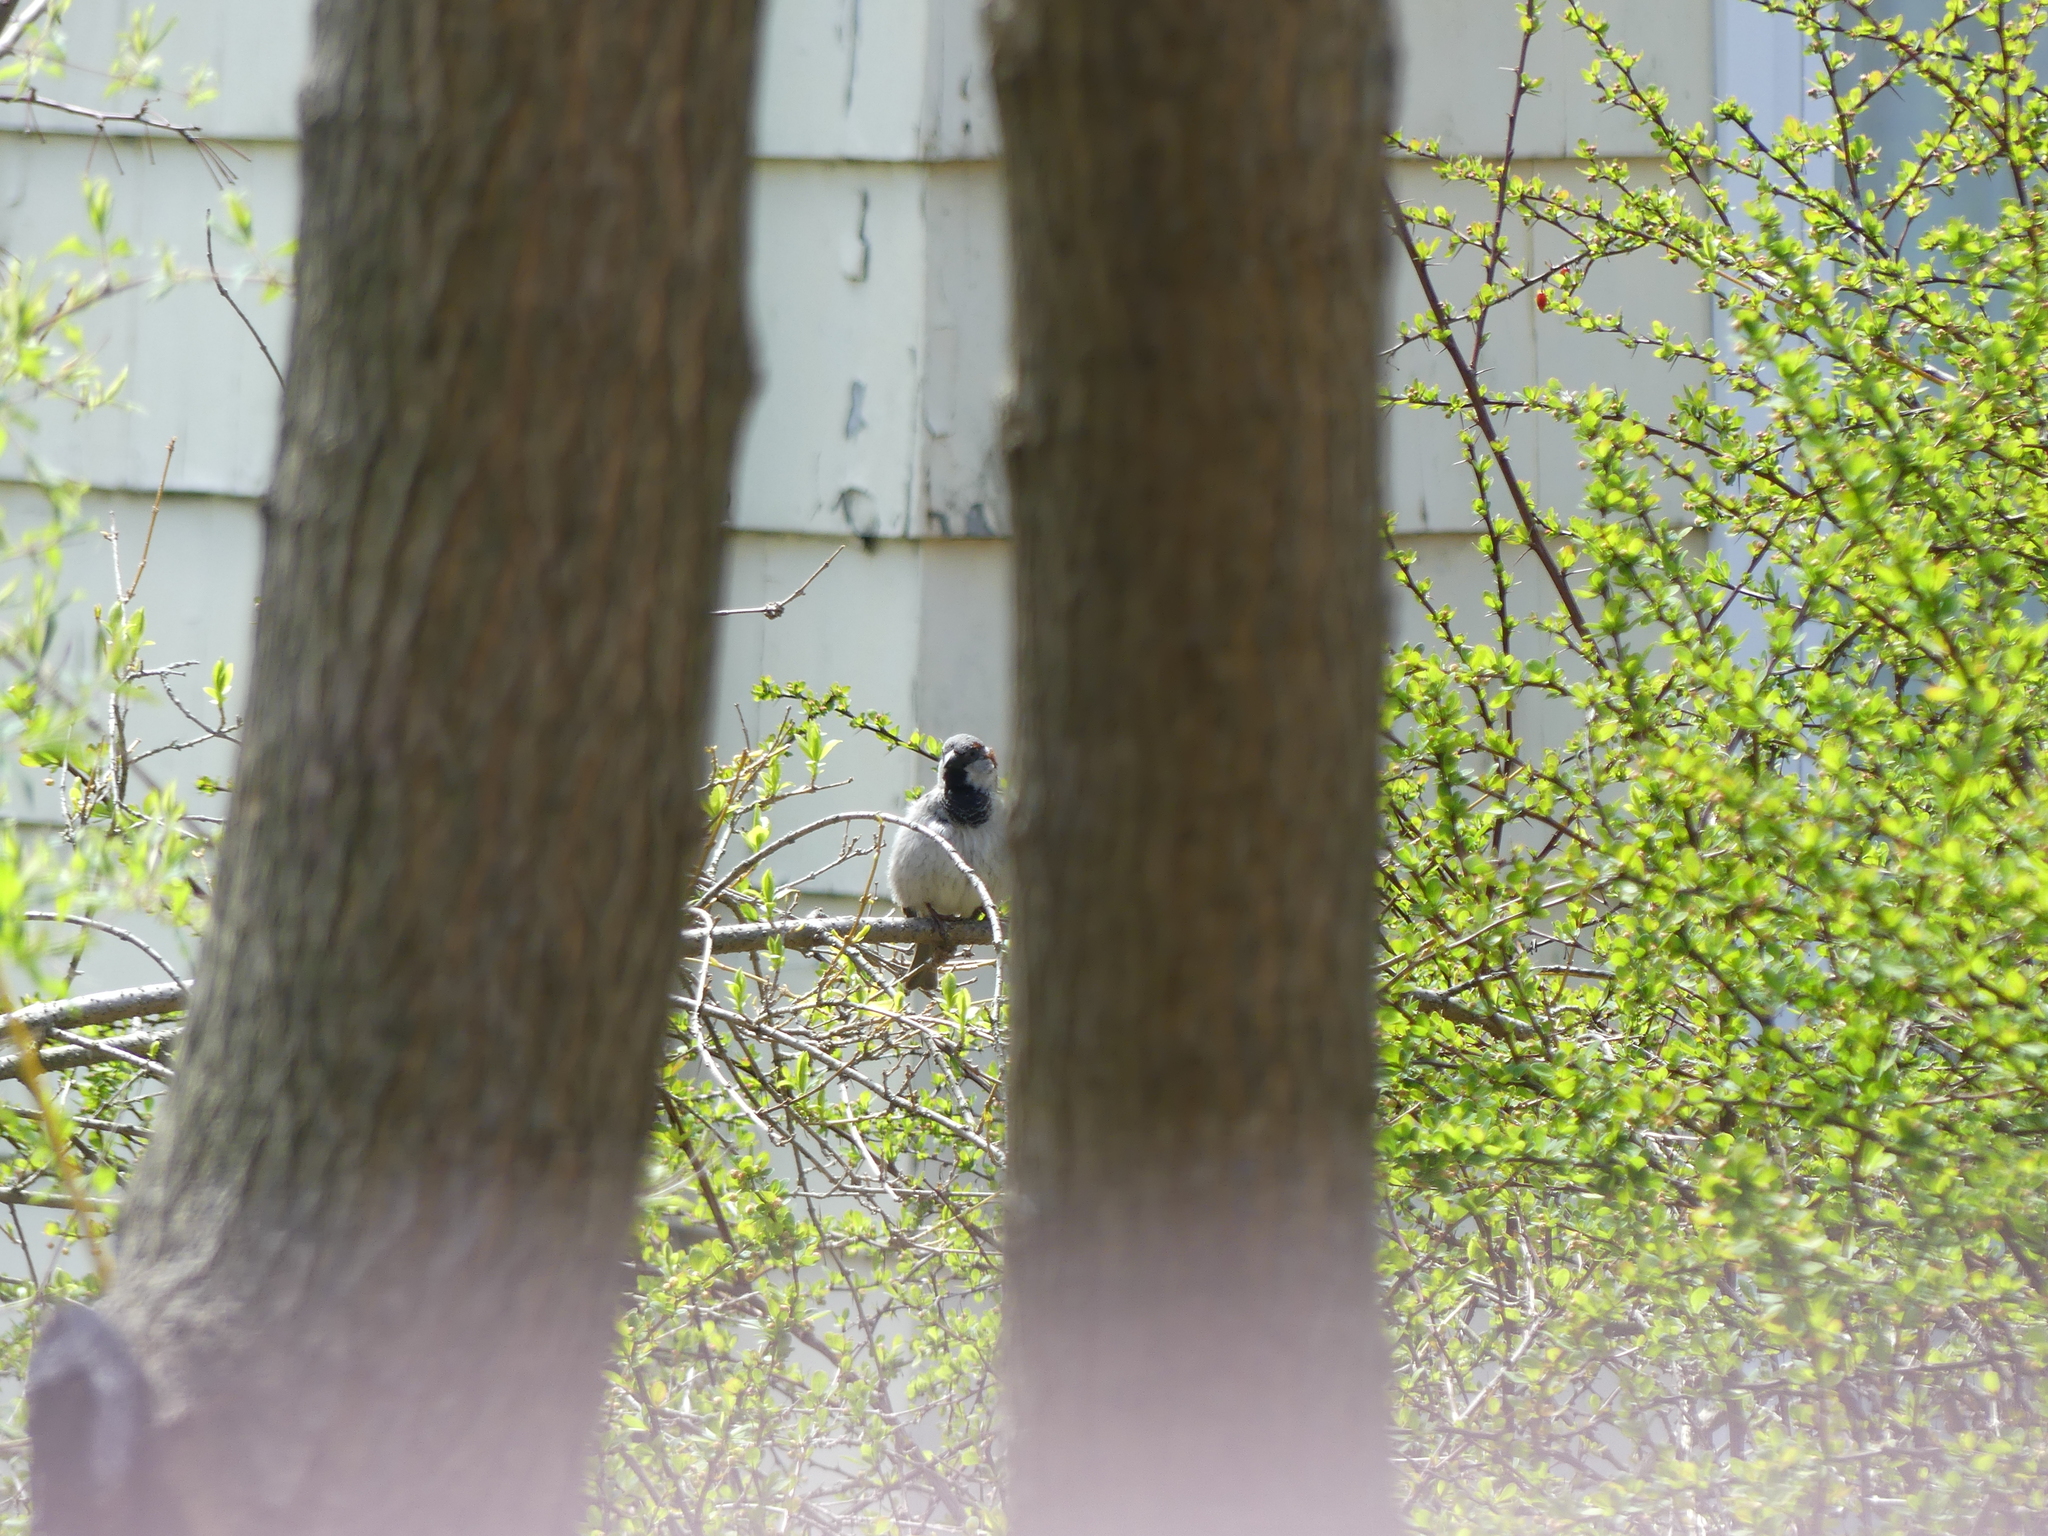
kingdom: Animalia
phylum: Chordata
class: Aves
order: Passeriformes
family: Passeridae
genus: Passer
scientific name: Passer domesticus
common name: House sparrow
